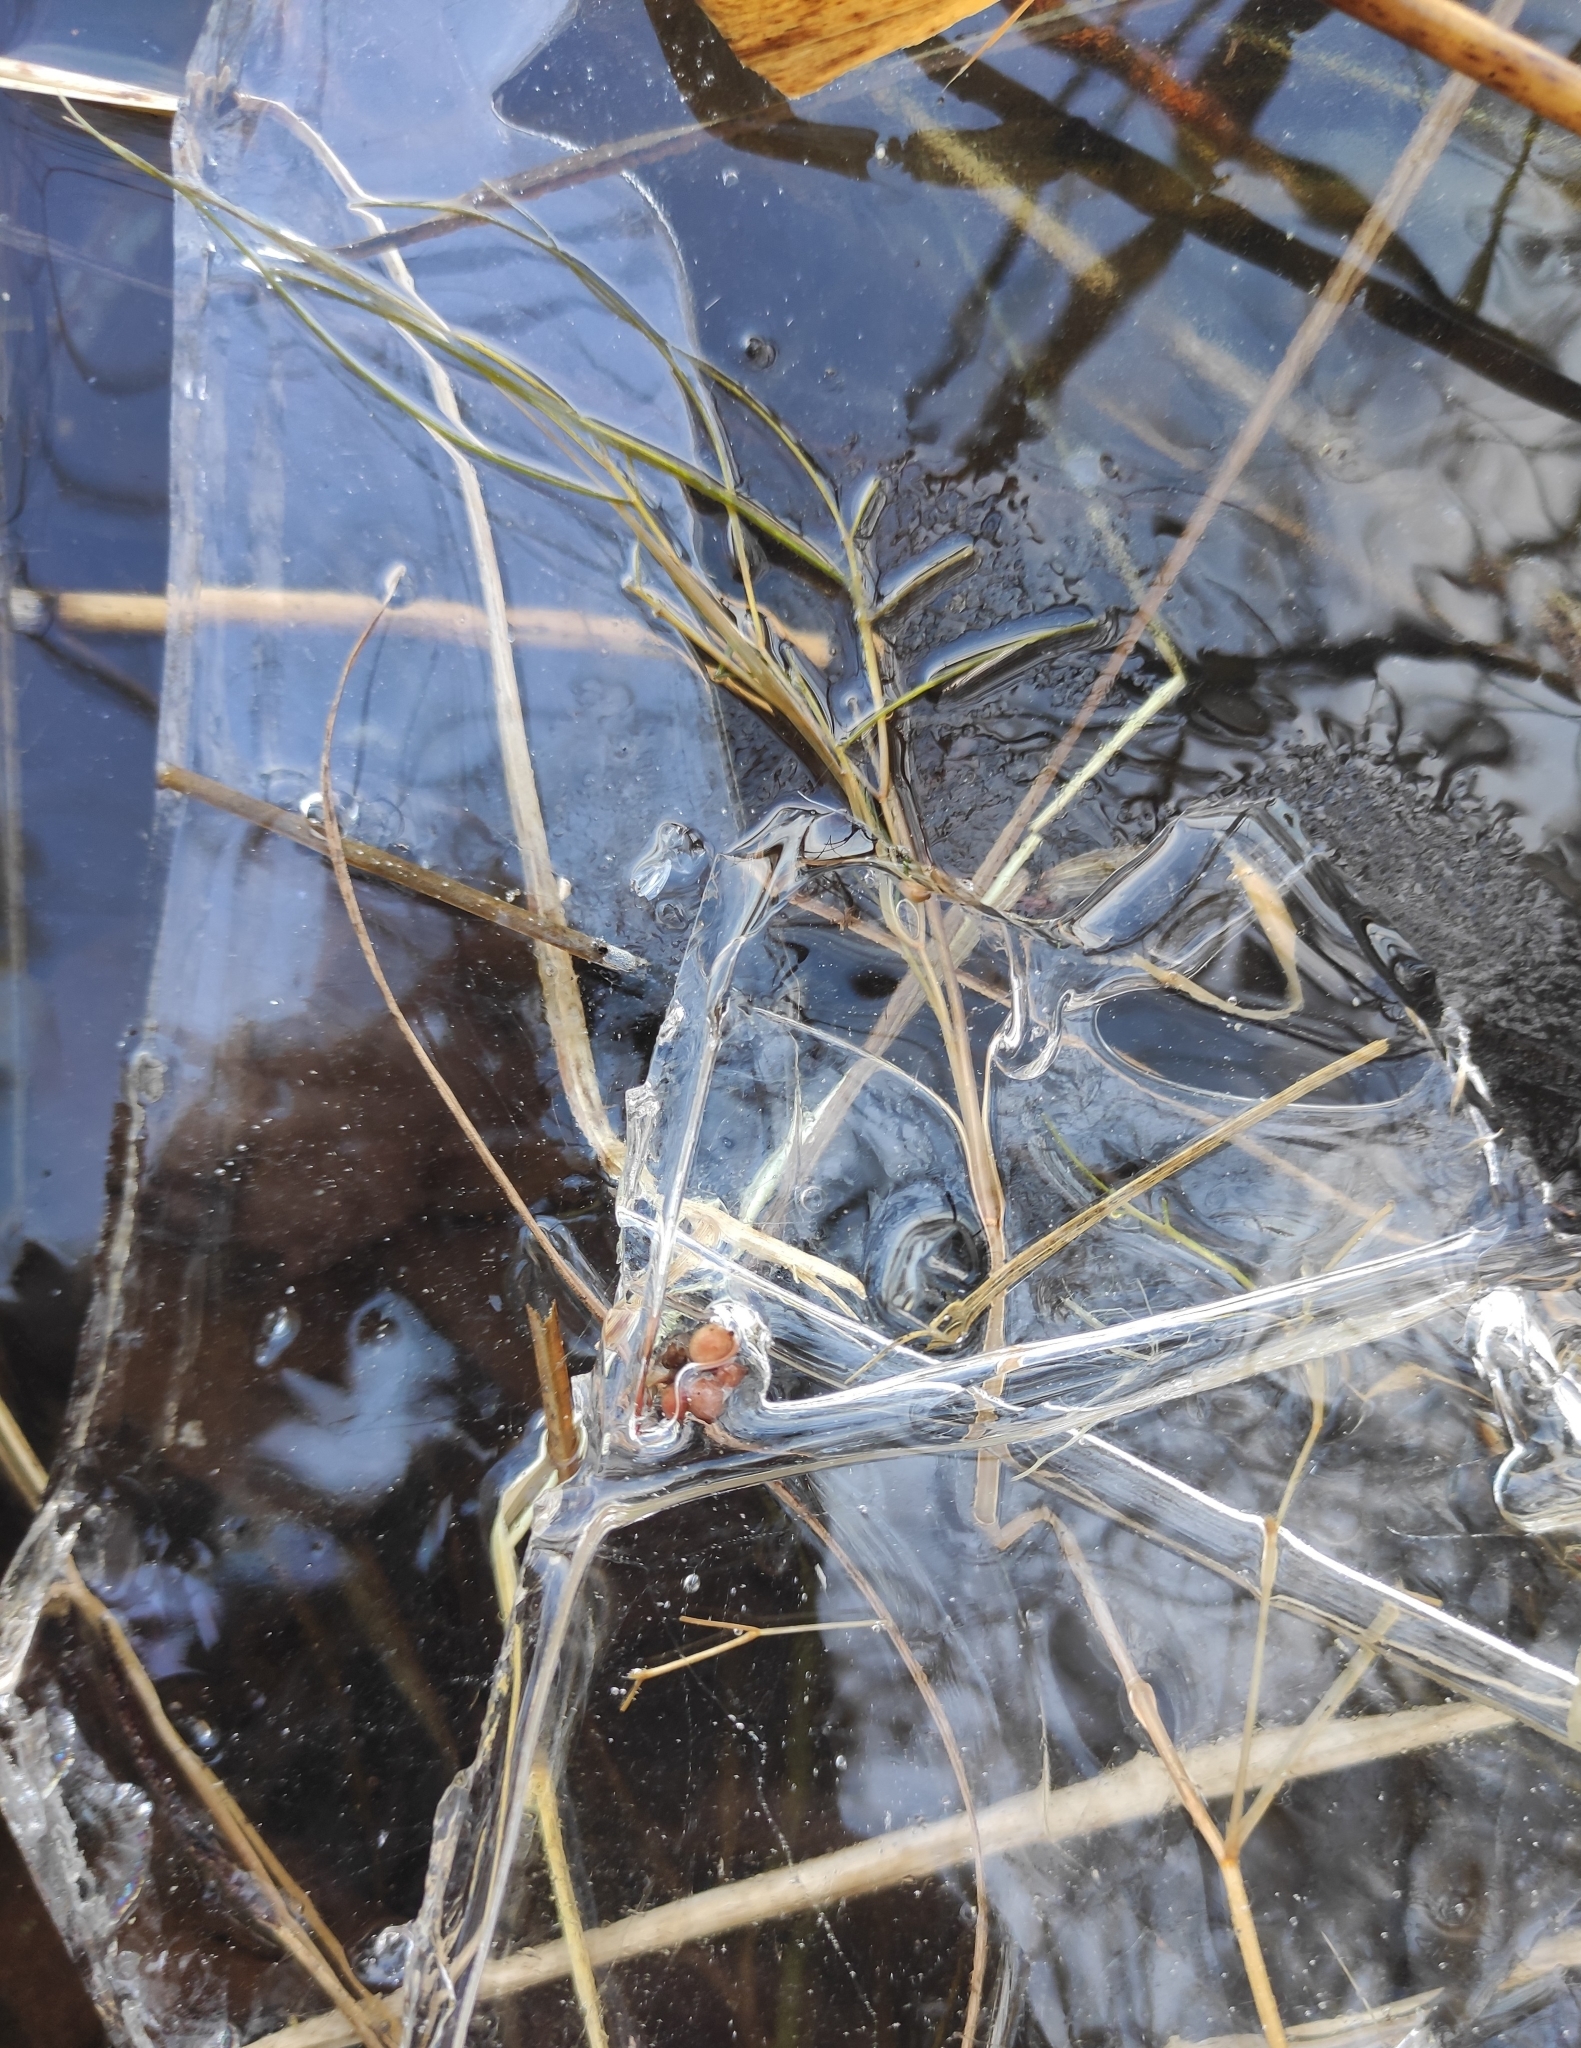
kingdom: Plantae
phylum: Tracheophyta
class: Liliopsida
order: Alismatales
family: Potamogetonaceae
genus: Stuckenia
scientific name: Stuckenia pectinata
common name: Sago pondweed
